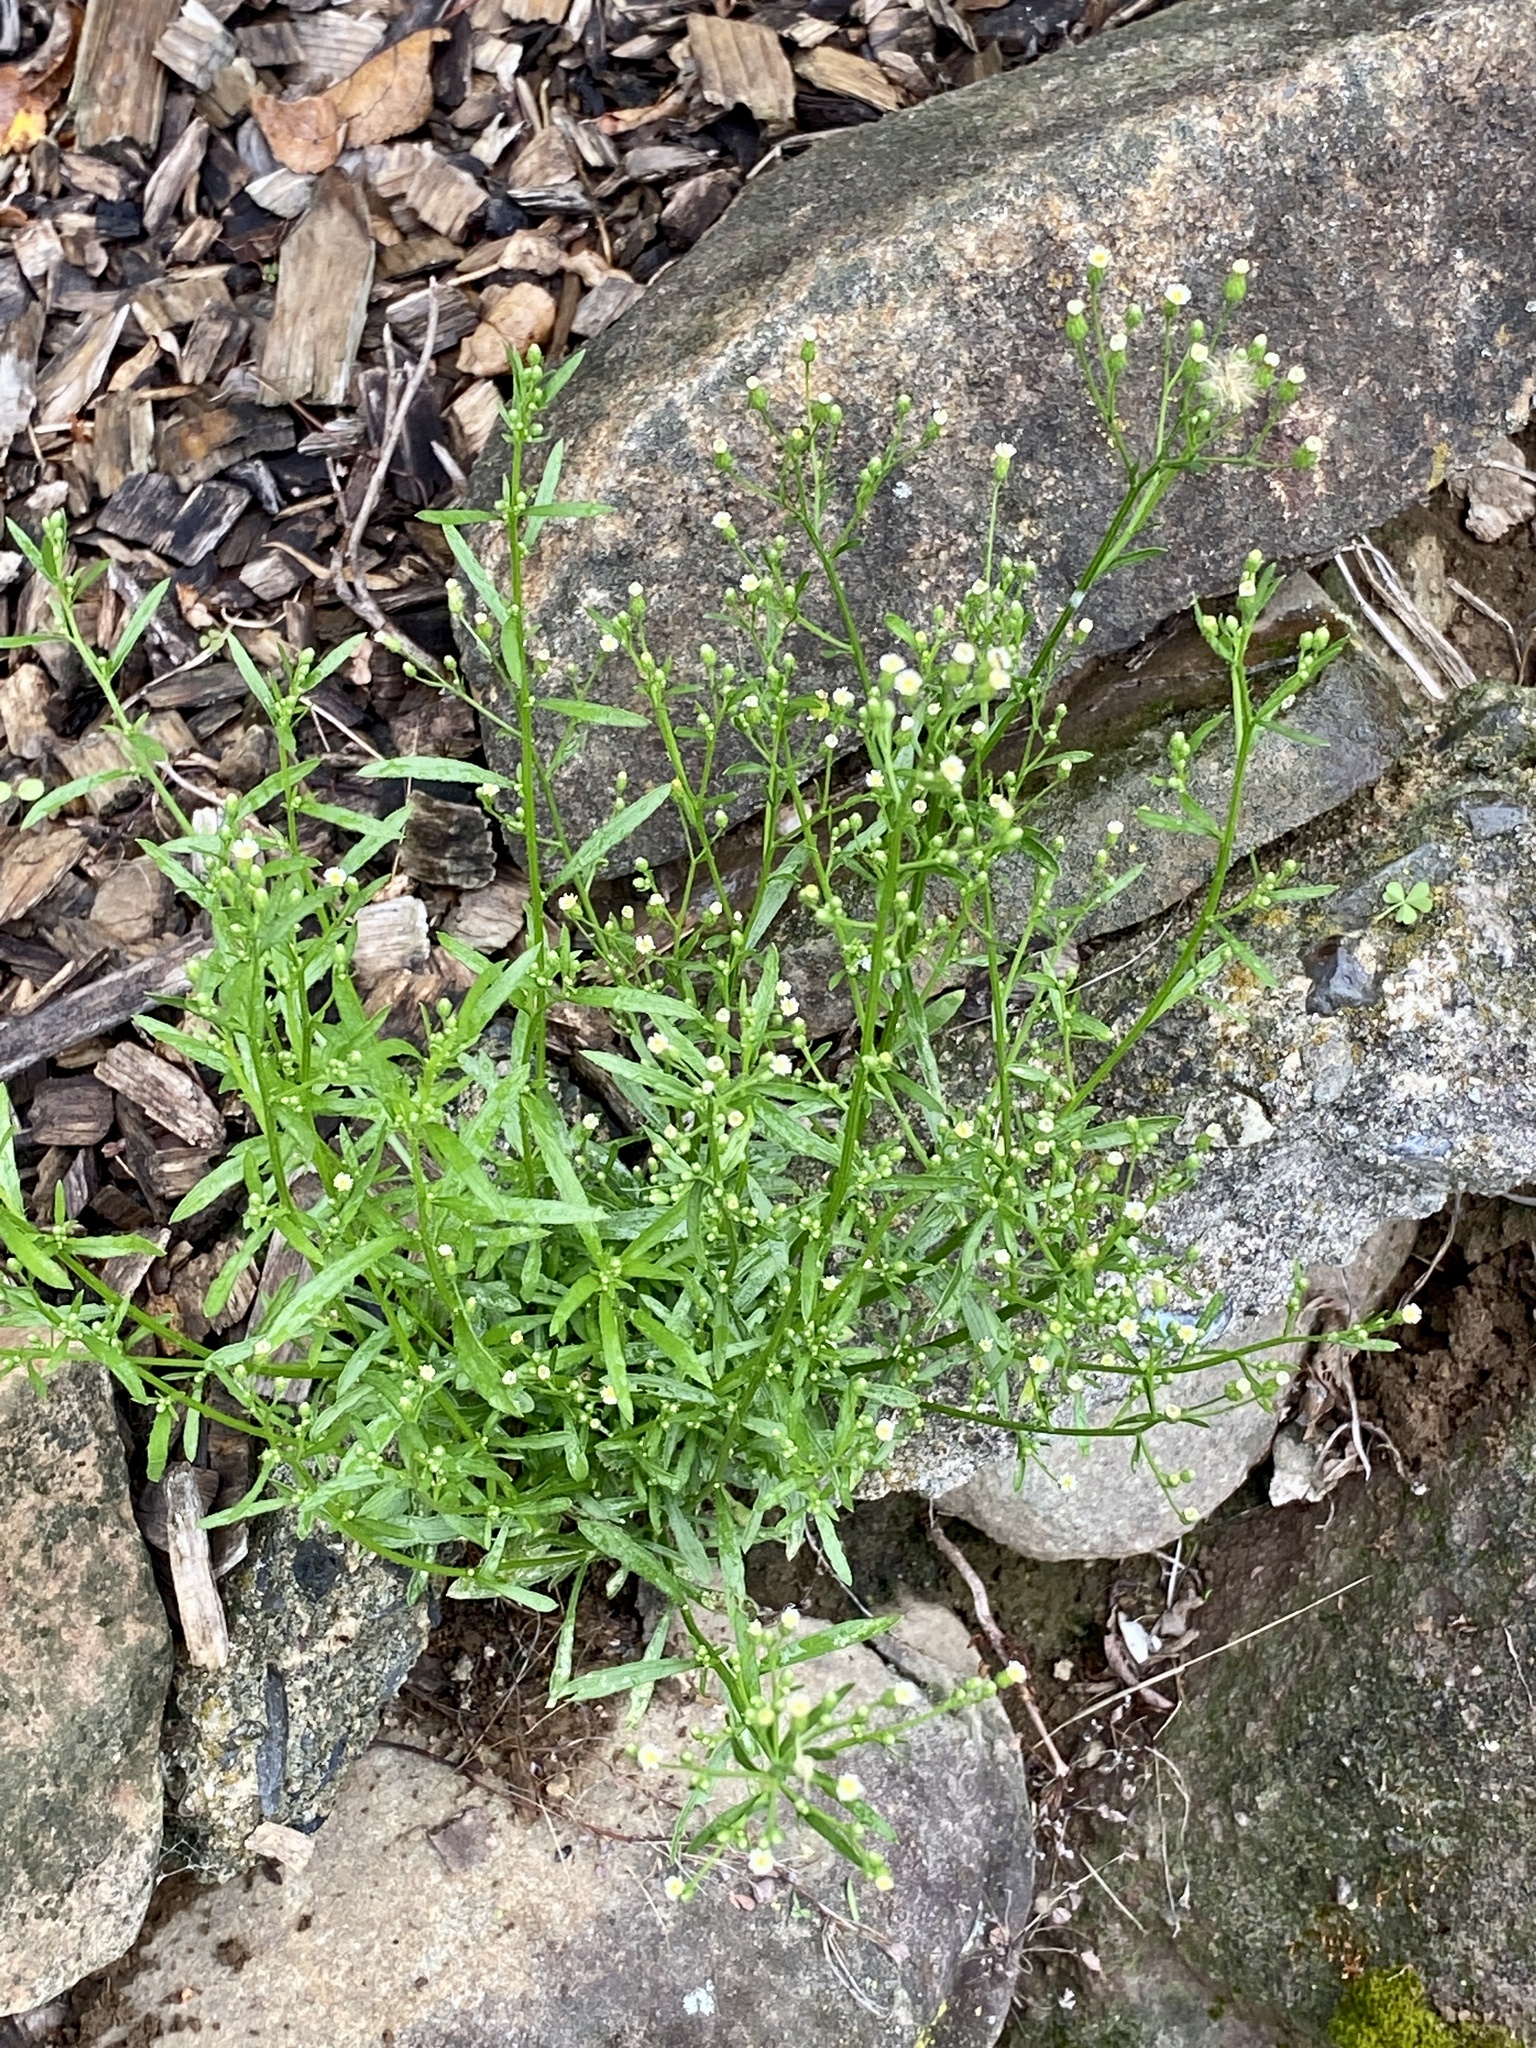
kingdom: Plantae
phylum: Tracheophyta
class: Magnoliopsida
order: Asterales
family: Asteraceae
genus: Erigeron
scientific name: Erigeron canadensis
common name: Canadian fleabane
